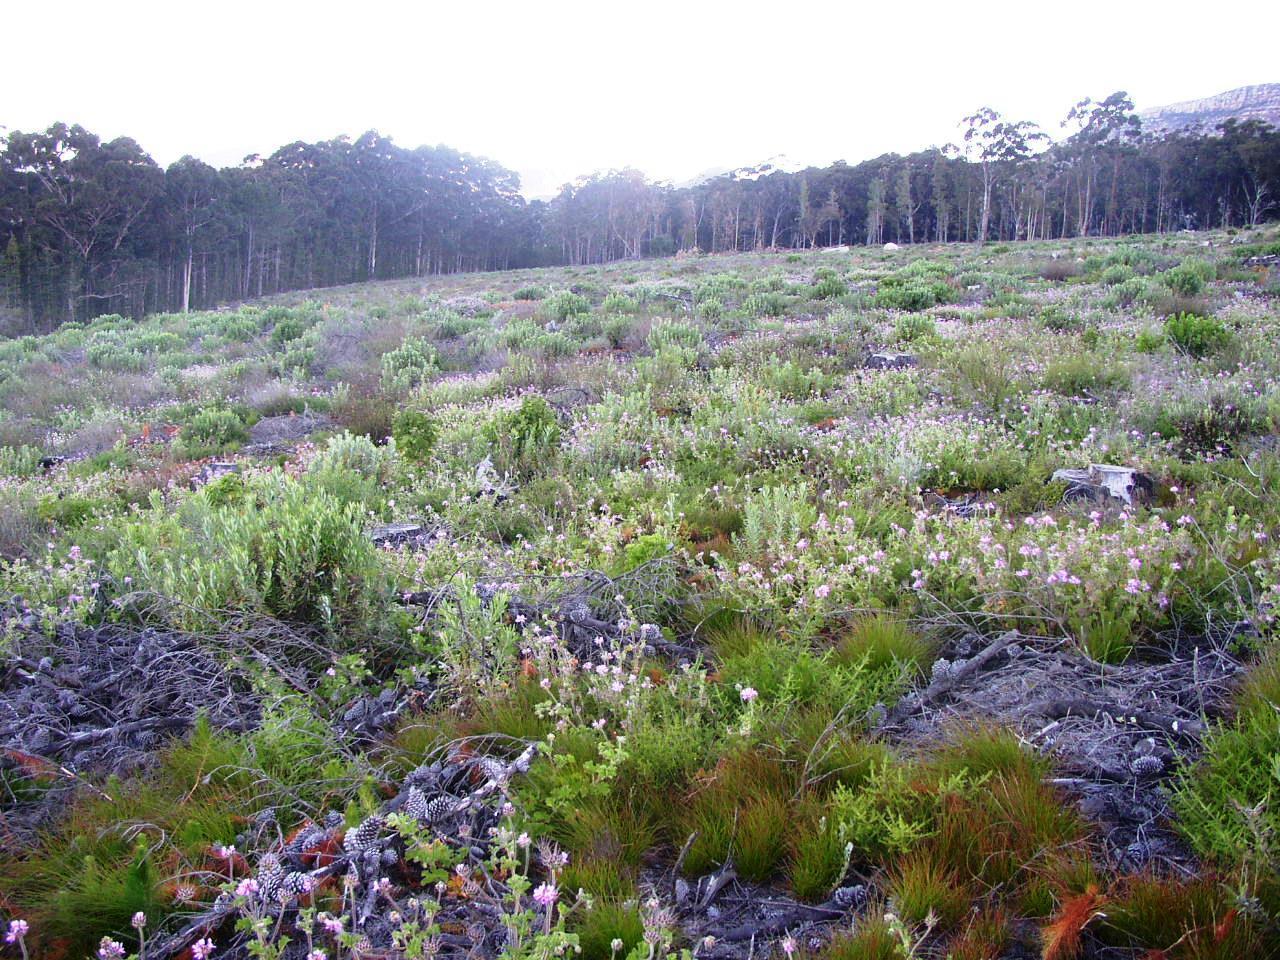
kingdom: Plantae
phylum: Tracheophyta
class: Magnoliopsida
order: Geraniales
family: Geraniaceae
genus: Pelargonium
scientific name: Pelargonium capitatum
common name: Rose scented geranium
